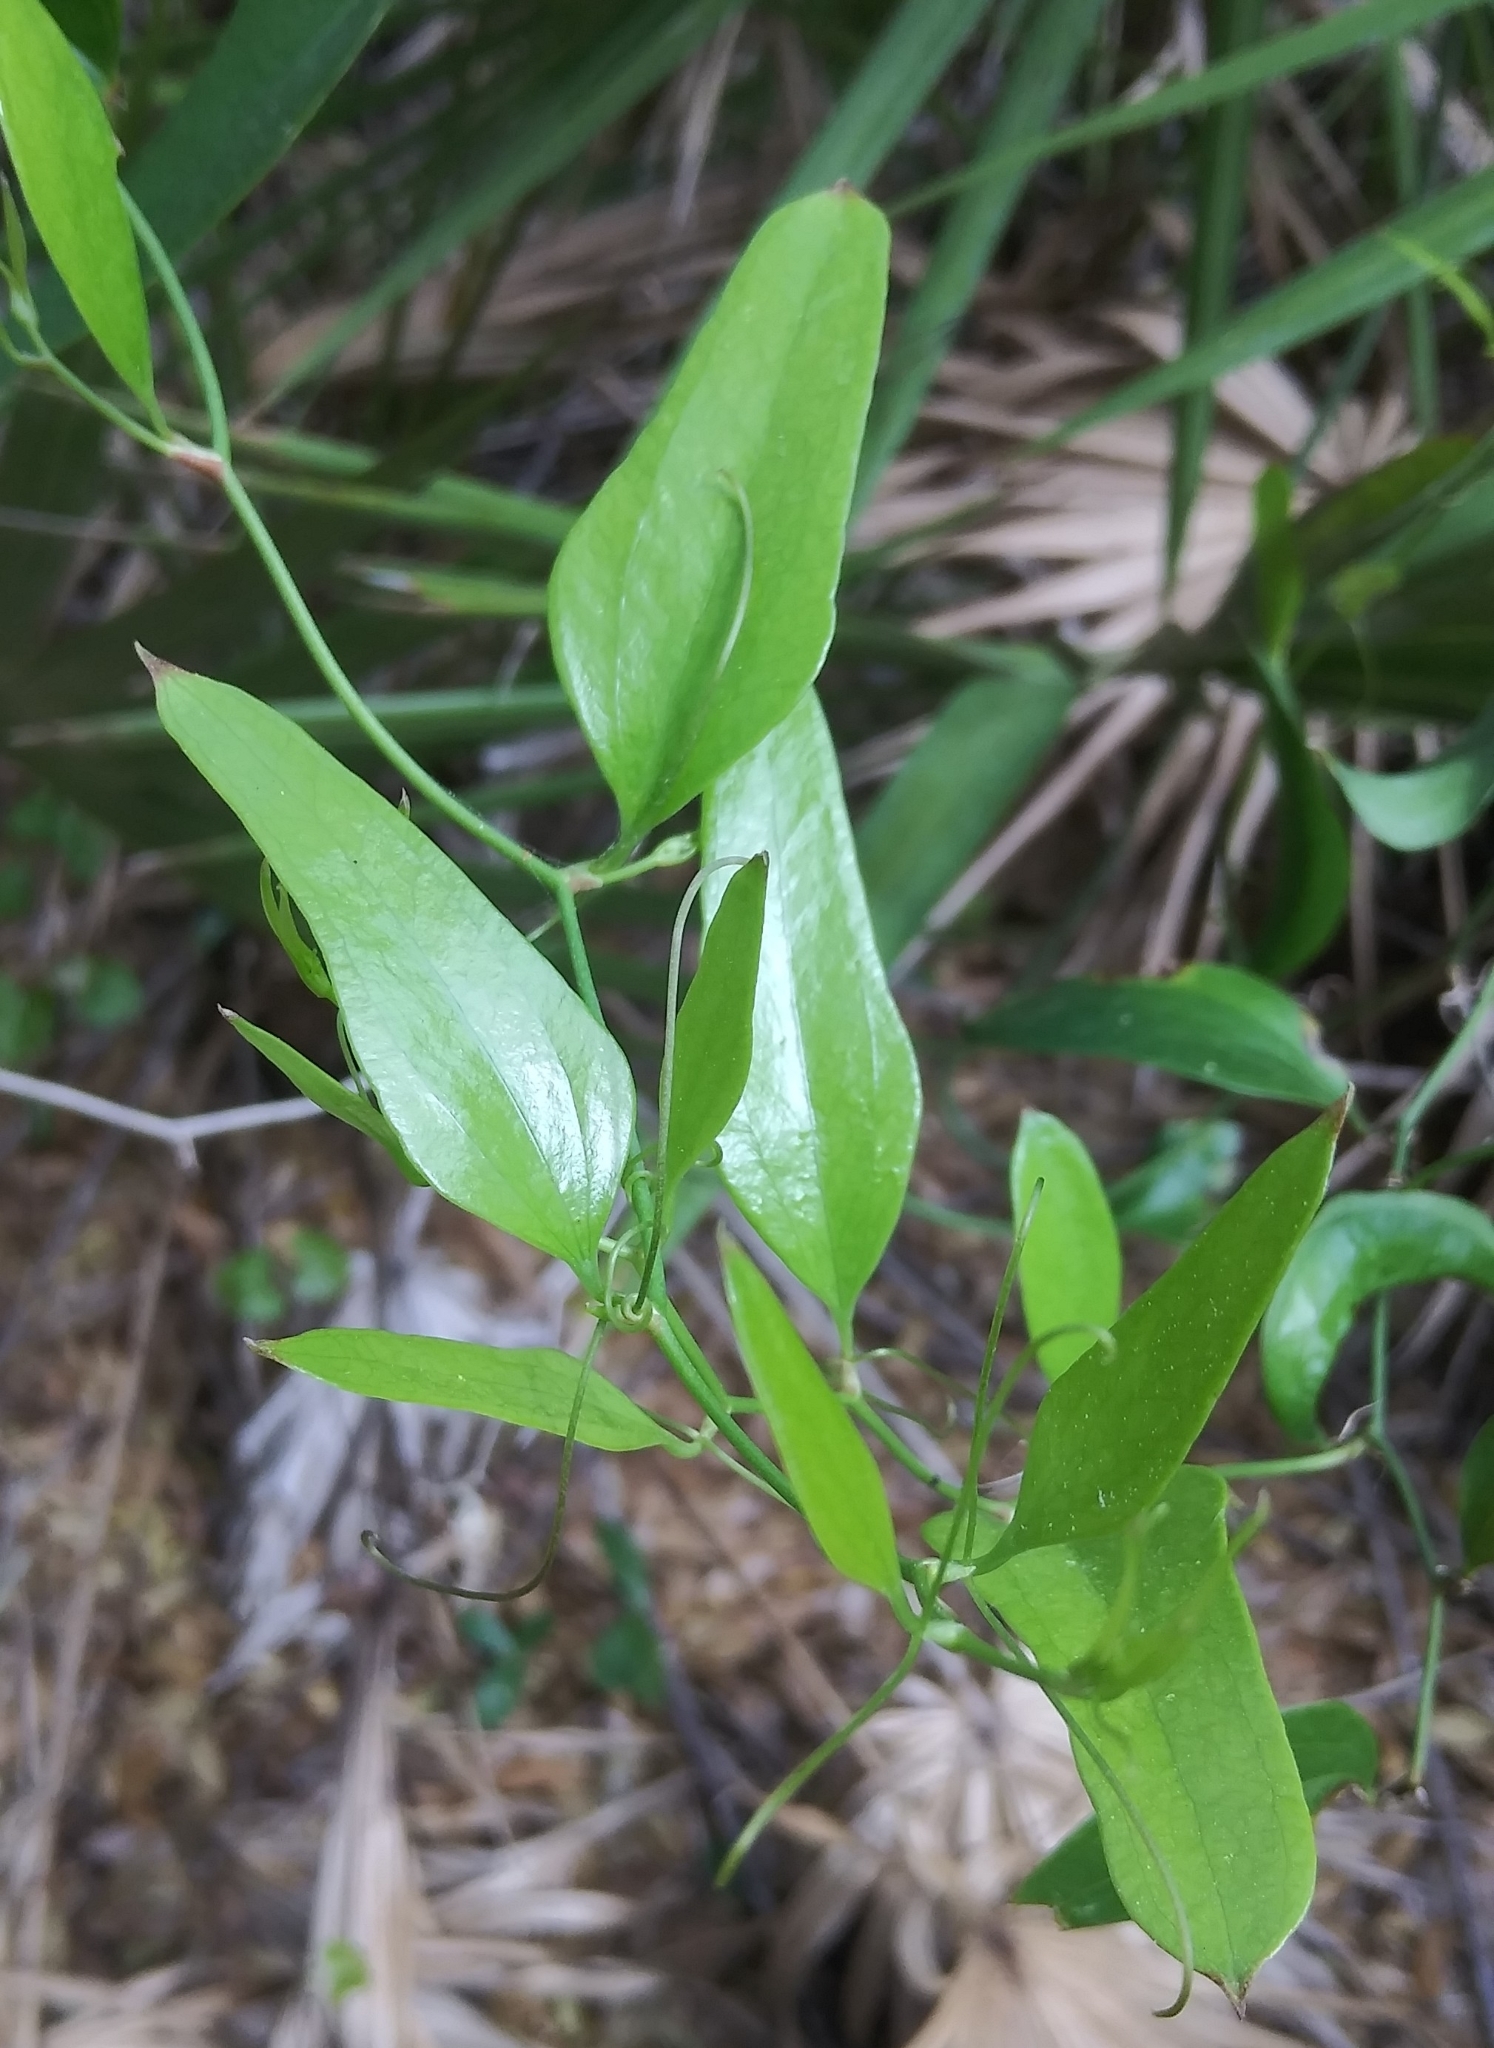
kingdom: Plantae
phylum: Tracheophyta
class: Liliopsida
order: Liliales
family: Smilacaceae
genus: Smilax
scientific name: Smilax auriculata
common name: Wild bamboo
